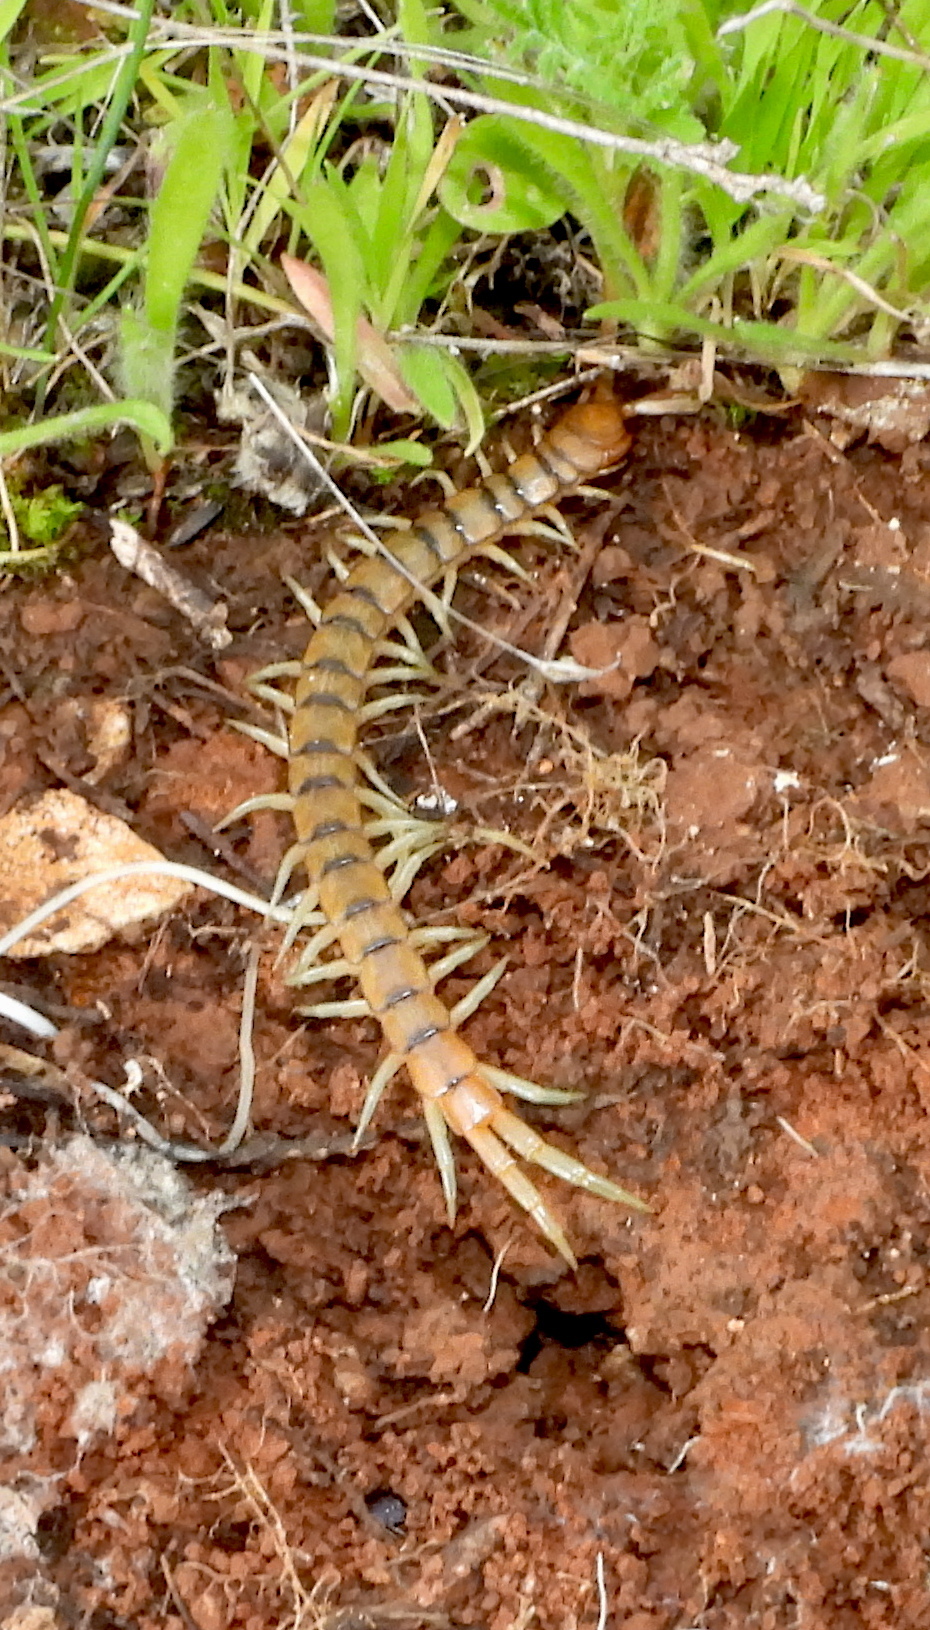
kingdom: Animalia
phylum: Arthropoda
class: Chilopoda
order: Scolopendromorpha
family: Scolopendridae
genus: Scolopendra
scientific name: Scolopendra cingulata
